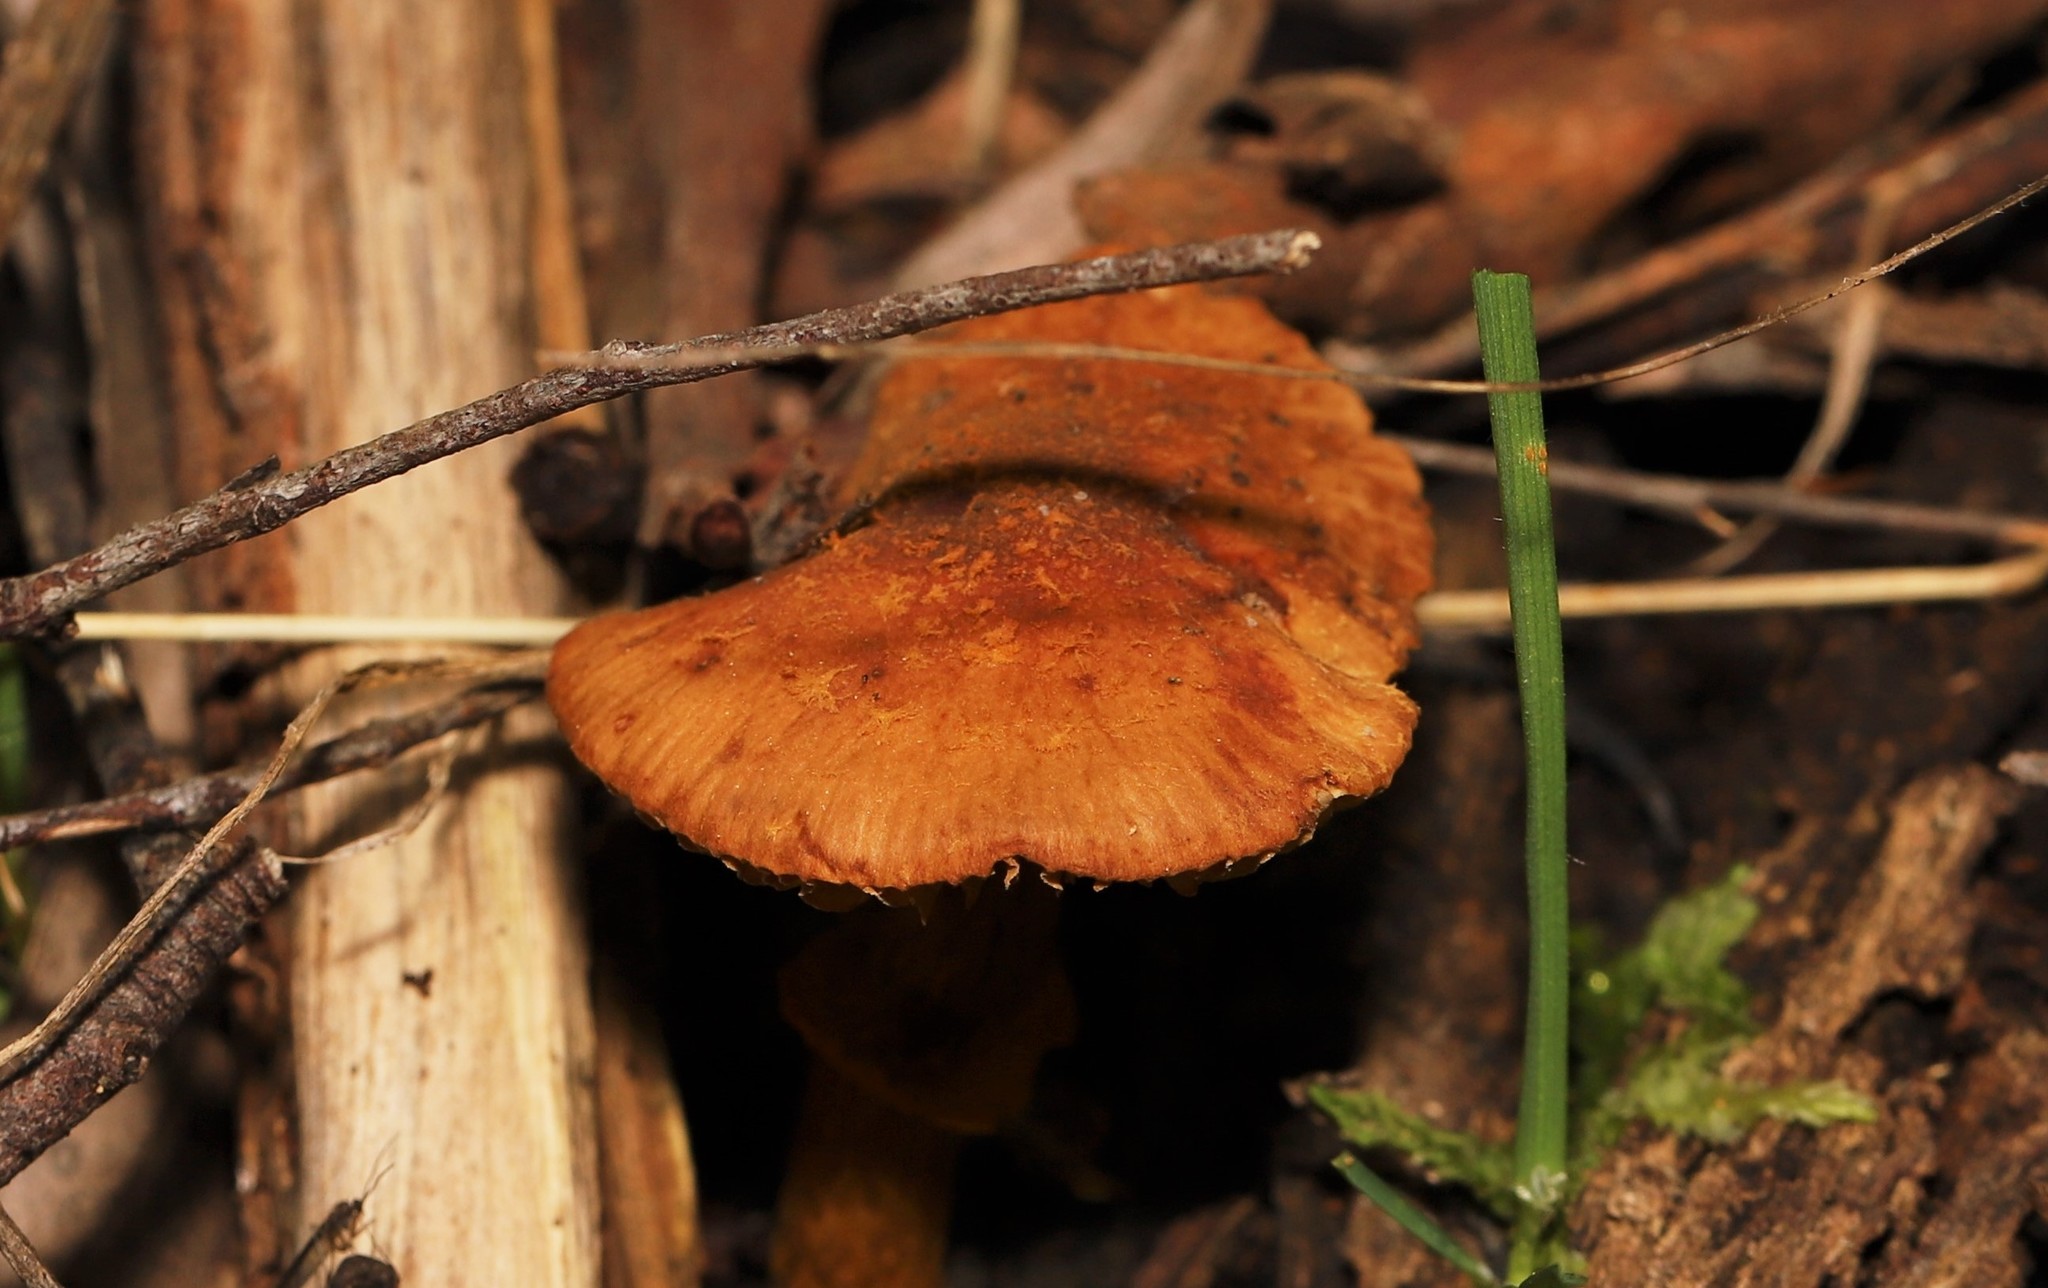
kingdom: Fungi
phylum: Basidiomycota
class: Agaricomycetes
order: Agaricales
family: Bolbitiaceae
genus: Descolea
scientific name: Descolea recedens
